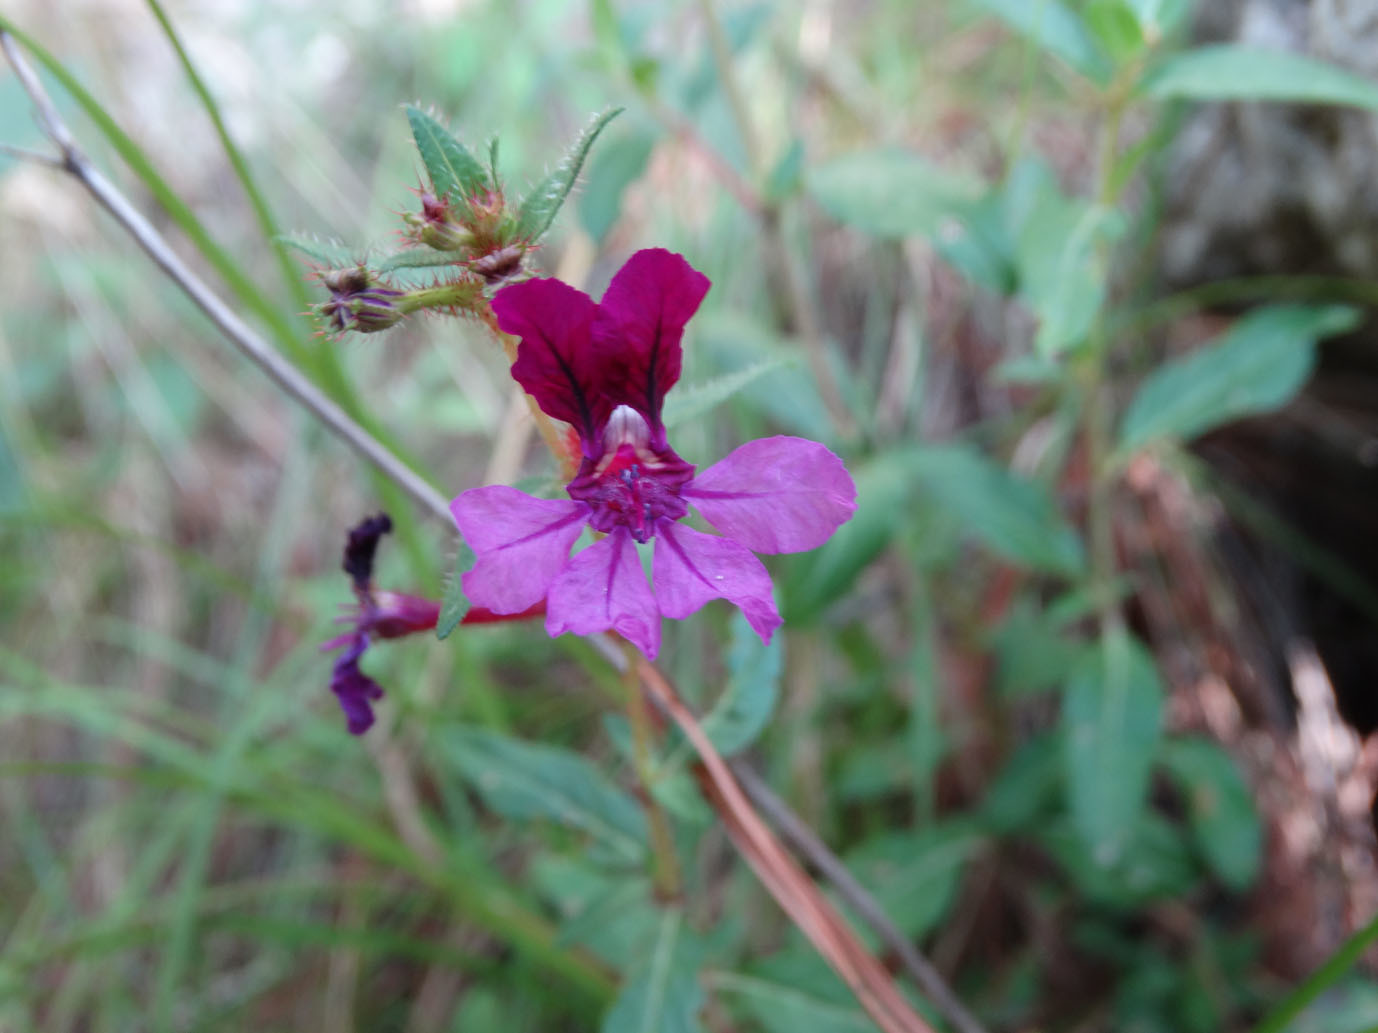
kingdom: Plantae
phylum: Tracheophyta
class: Magnoliopsida
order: Myrtales
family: Lythraceae
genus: Cuphea
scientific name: Cuphea aequipetala
